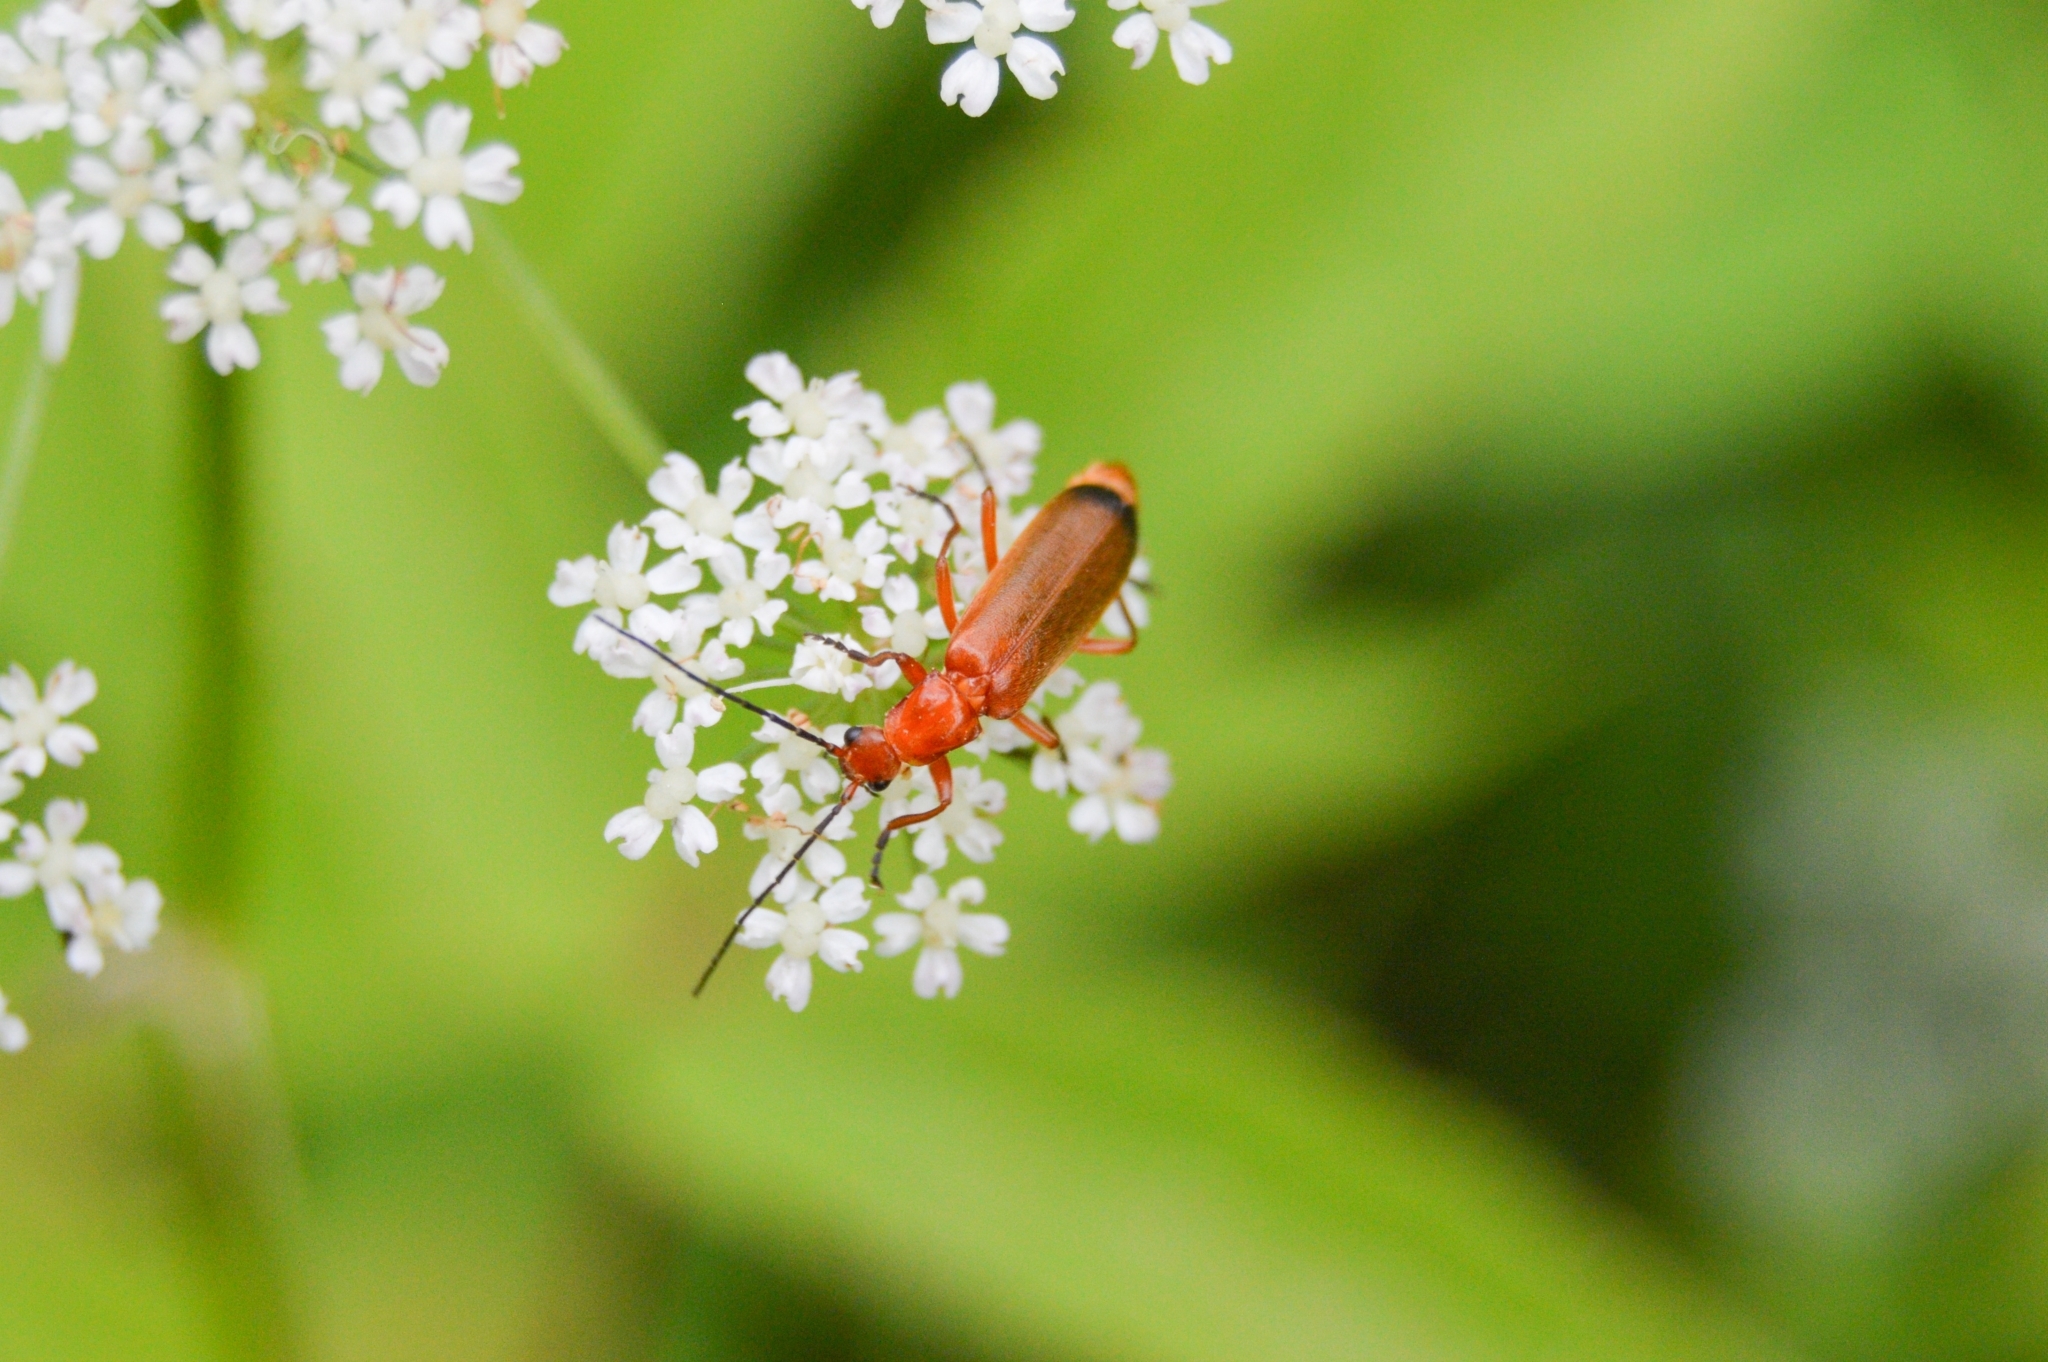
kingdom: Animalia
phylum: Arthropoda
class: Insecta
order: Coleoptera
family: Cantharidae
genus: Rhagonycha
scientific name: Rhagonycha fulva
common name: Common red soldier beetle
